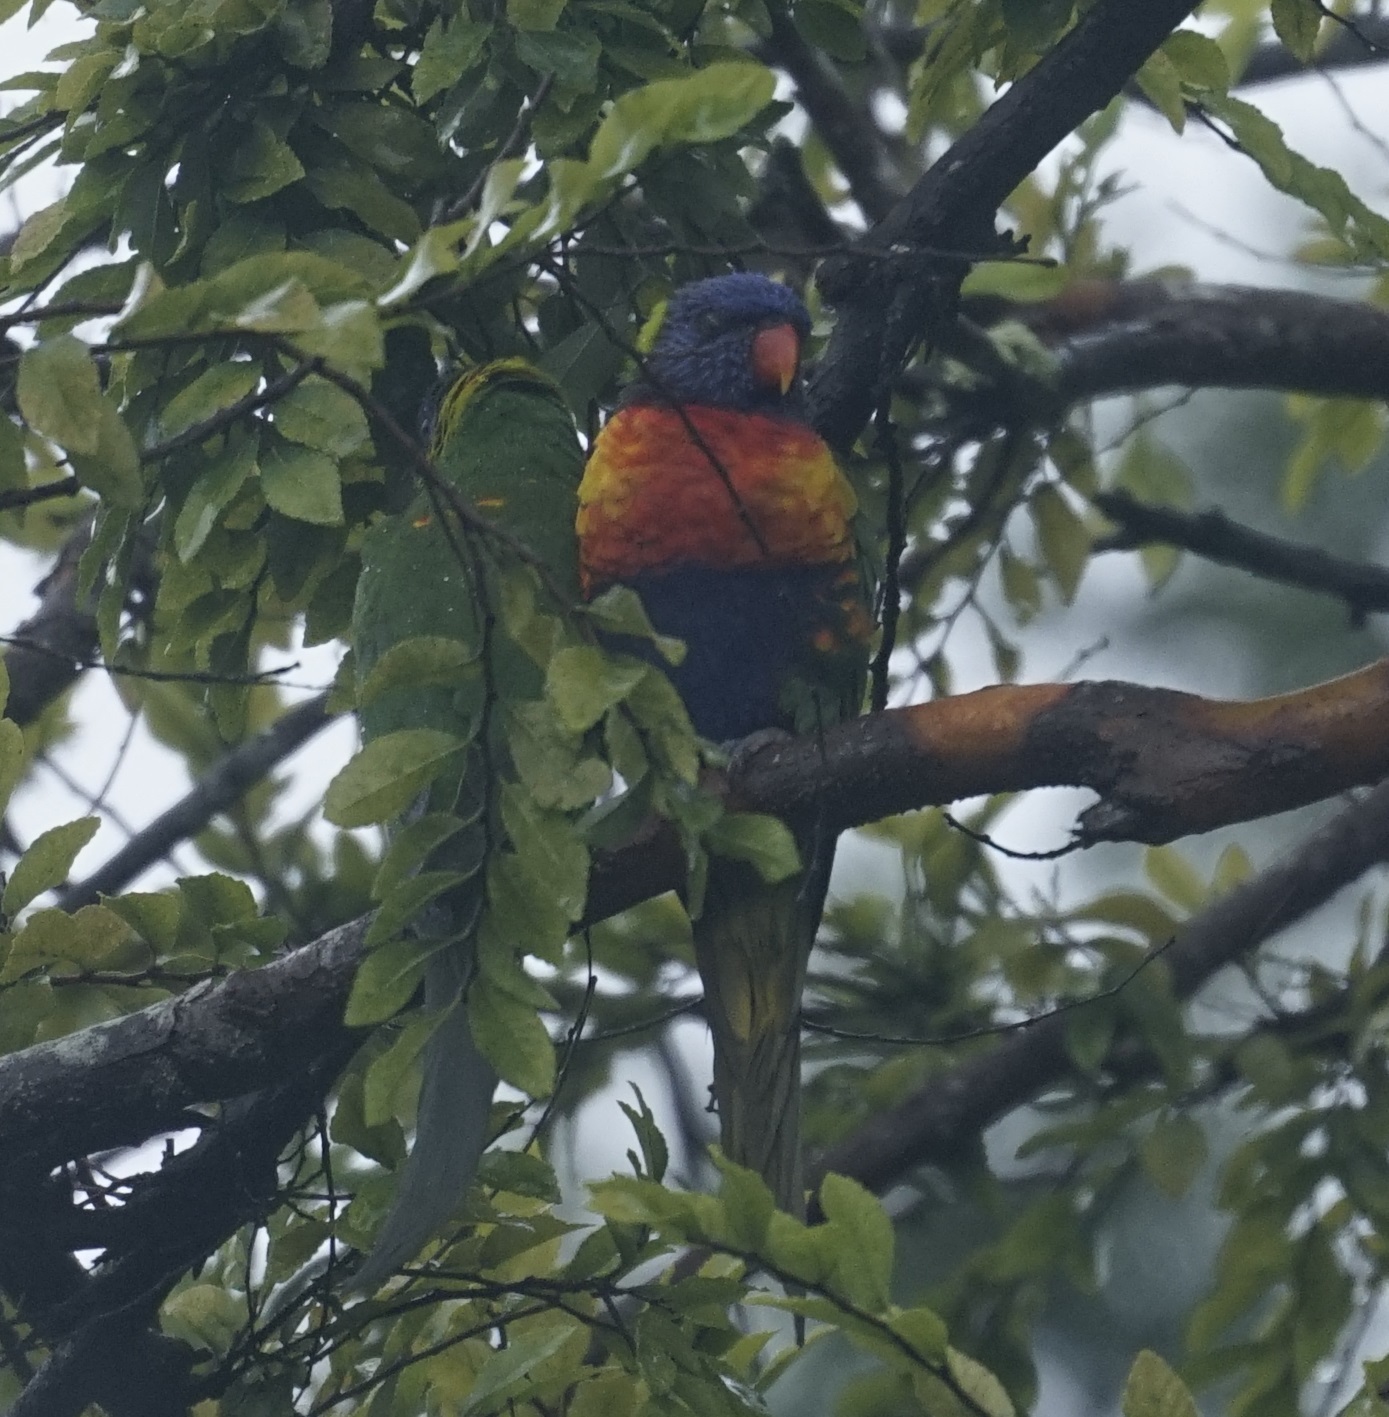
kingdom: Animalia
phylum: Chordata
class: Aves
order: Psittaciformes
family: Psittacidae
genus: Trichoglossus
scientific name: Trichoglossus haematodus
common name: Coconut lorikeet
